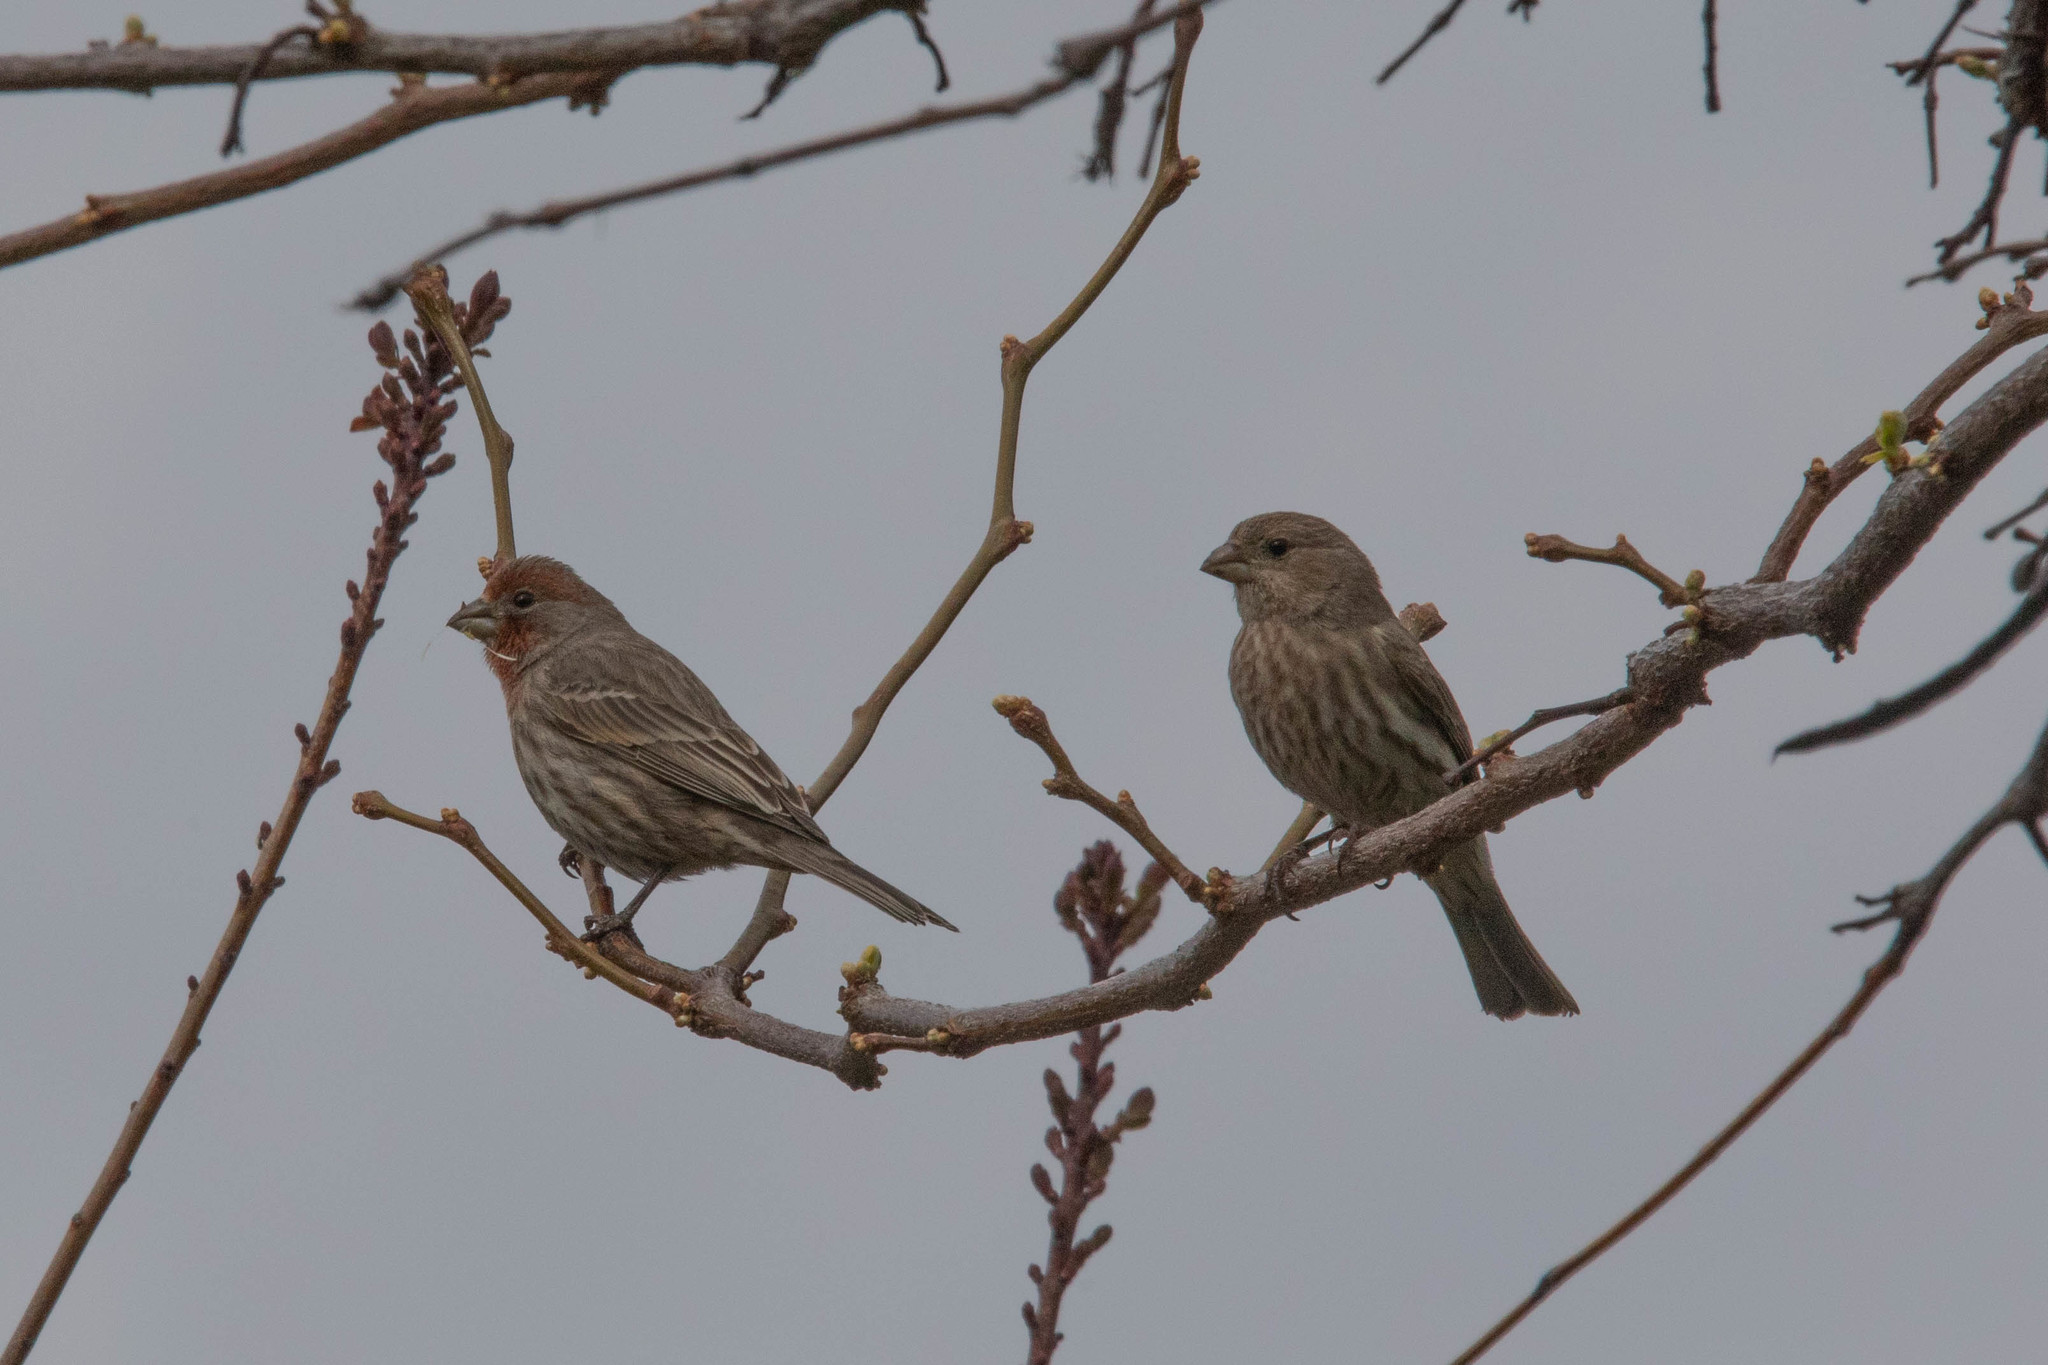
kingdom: Animalia
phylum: Chordata
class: Aves
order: Passeriformes
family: Fringillidae
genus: Haemorhous
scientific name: Haemorhous mexicanus
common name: House finch
